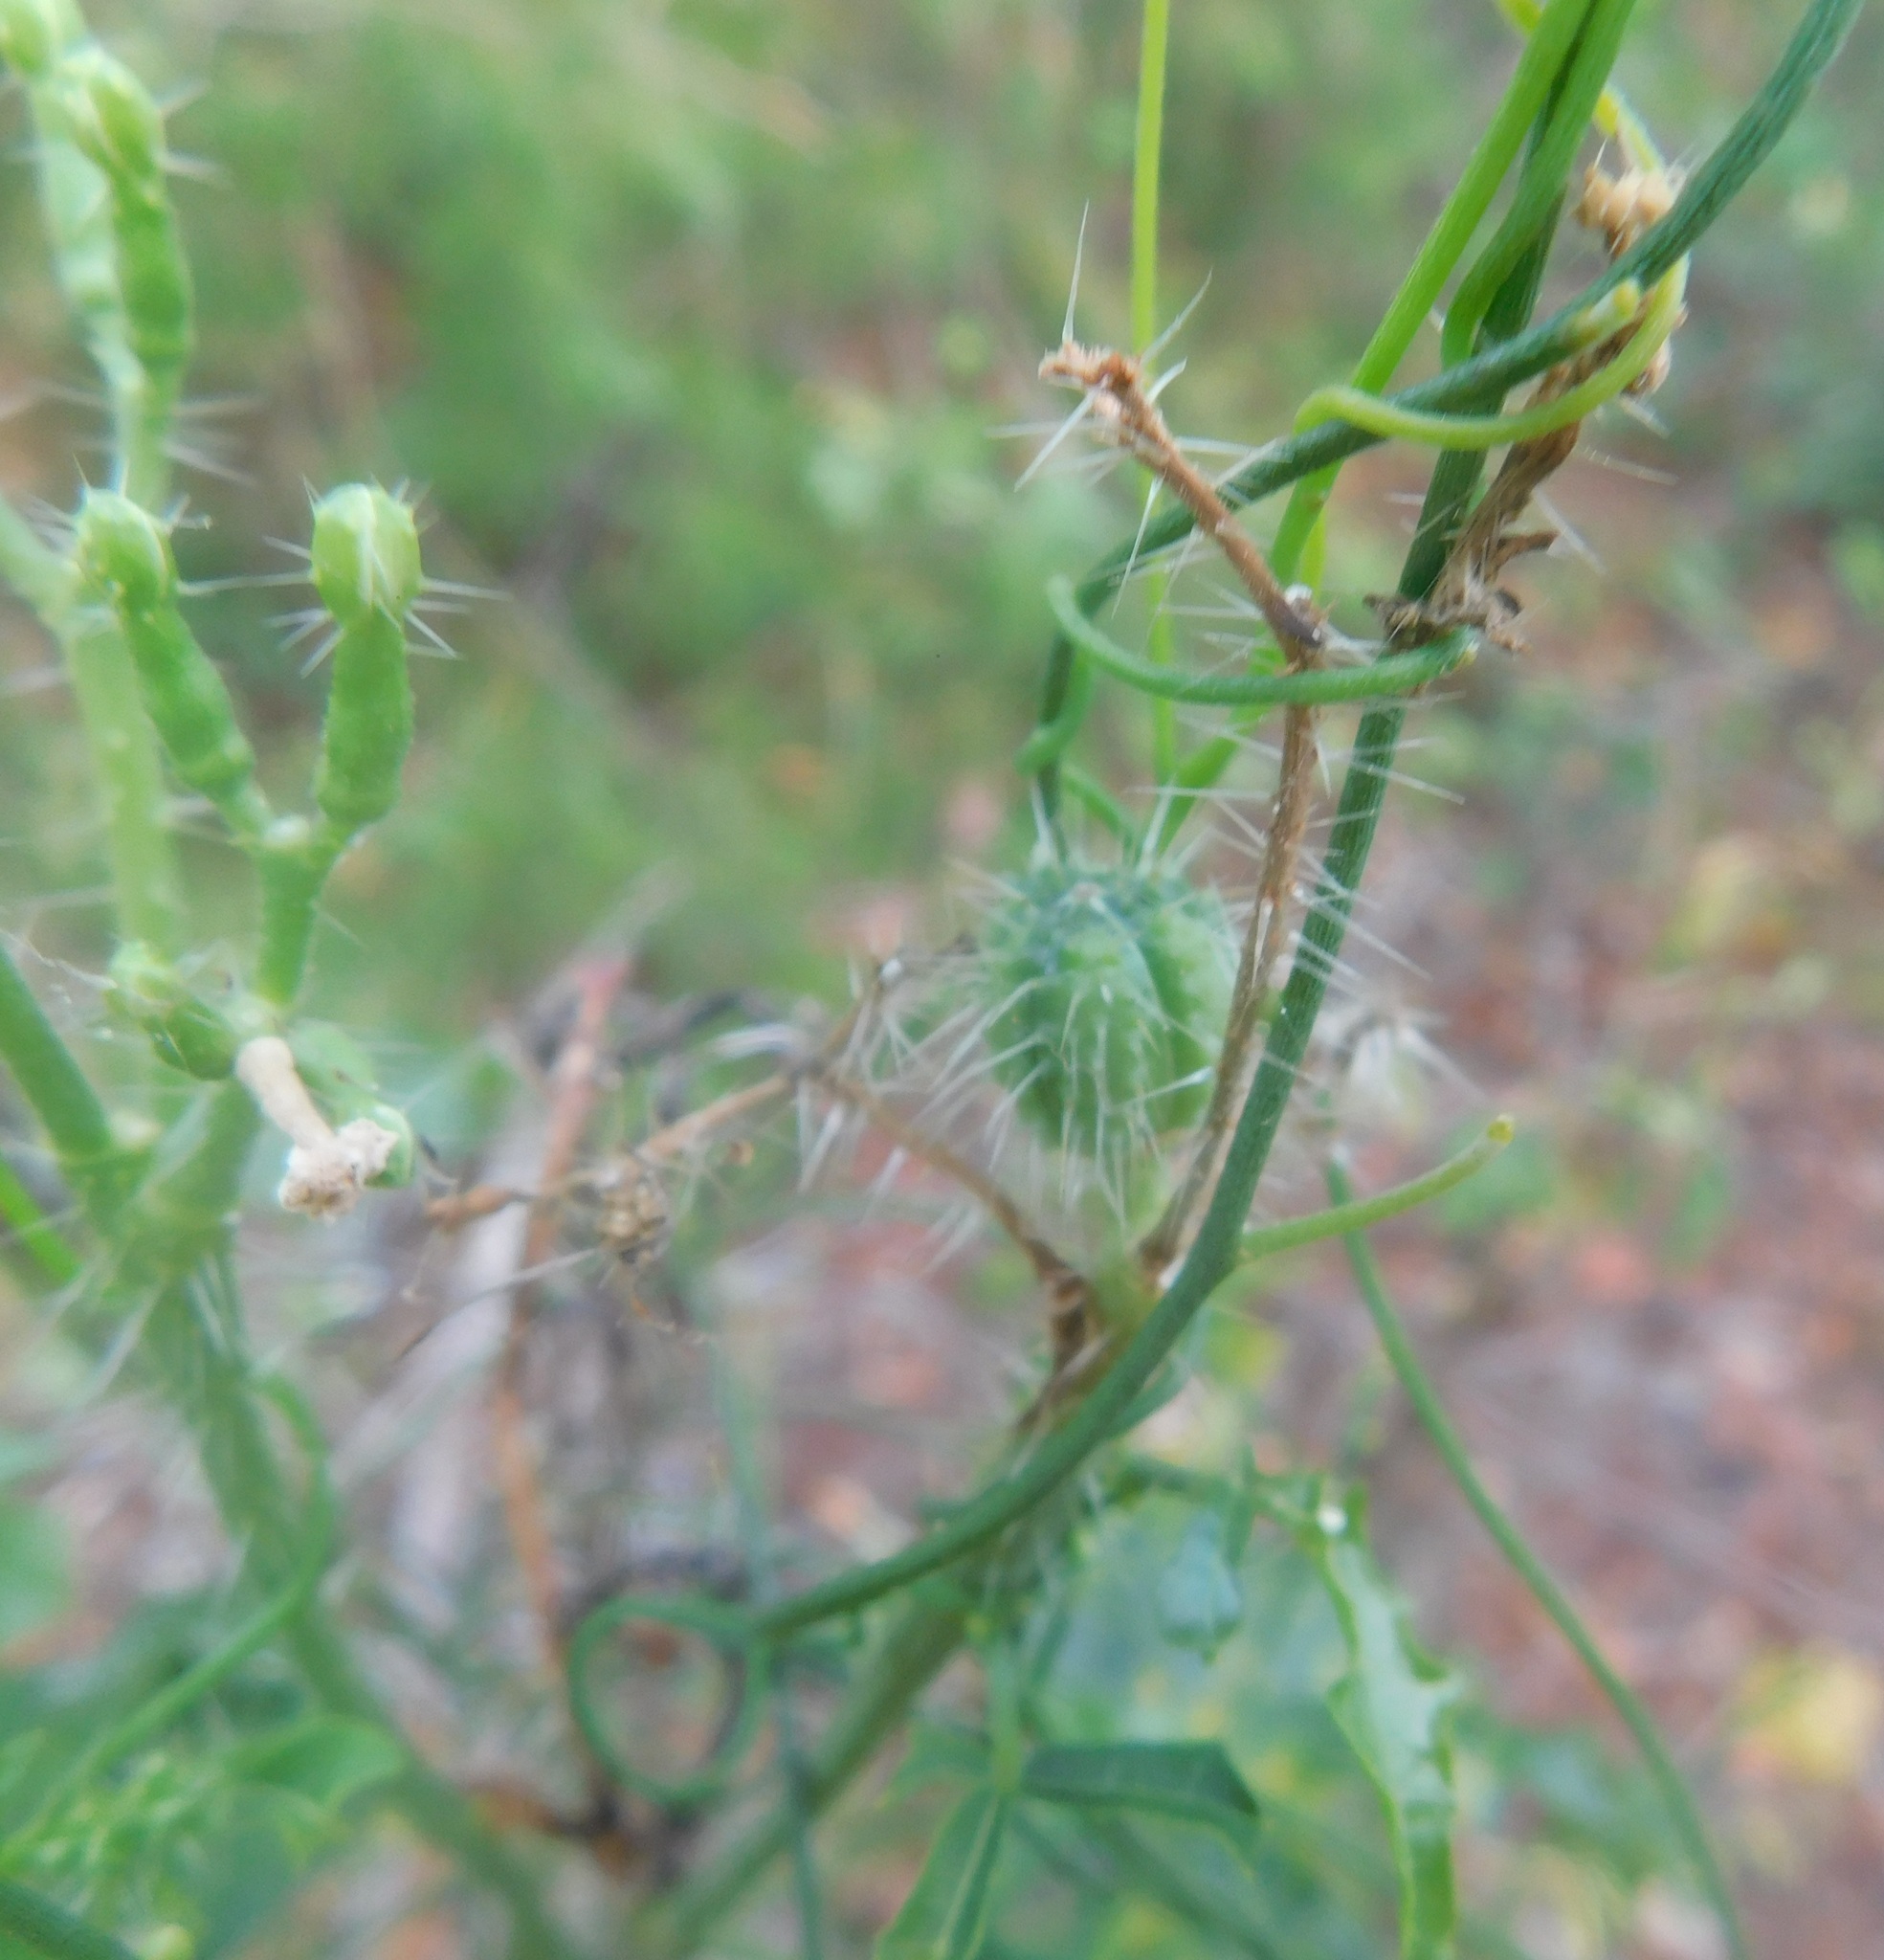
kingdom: Plantae
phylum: Tracheophyta
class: Magnoliopsida
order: Malpighiales
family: Euphorbiaceae
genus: Cnidoscolus
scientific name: Cnidoscolus stimulosus
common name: Bull-nettle
